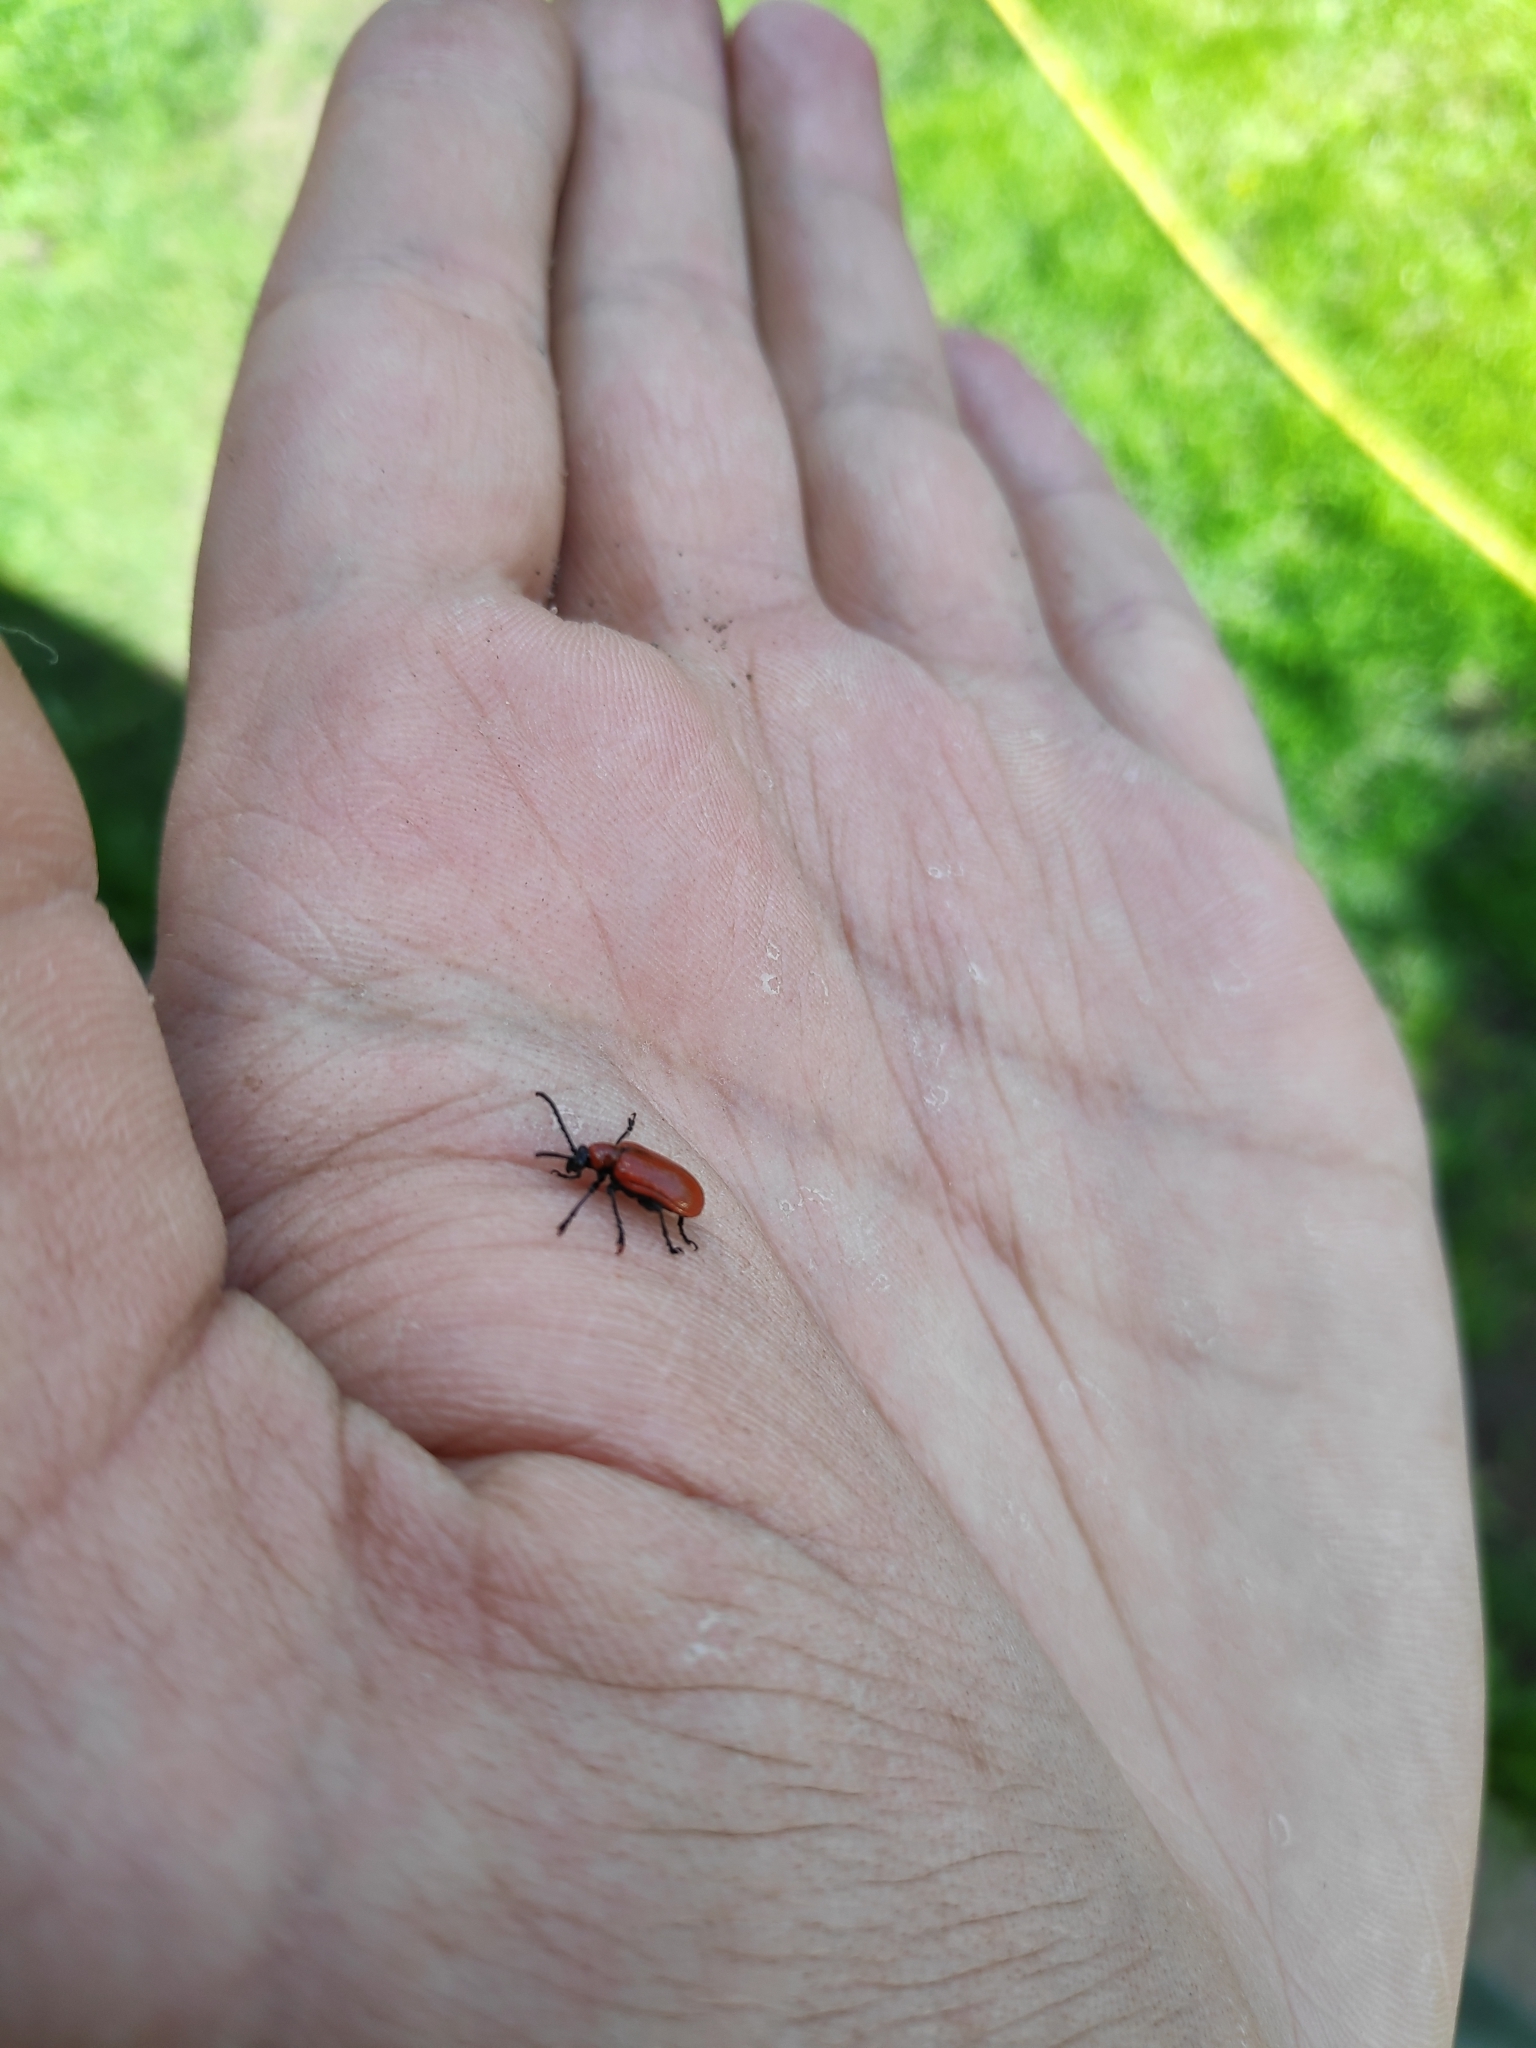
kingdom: Animalia
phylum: Arthropoda
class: Insecta
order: Coleoptera
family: Chrysomelidae
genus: Lilioceris
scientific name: Lilioceris lilii
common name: Lily beetle
